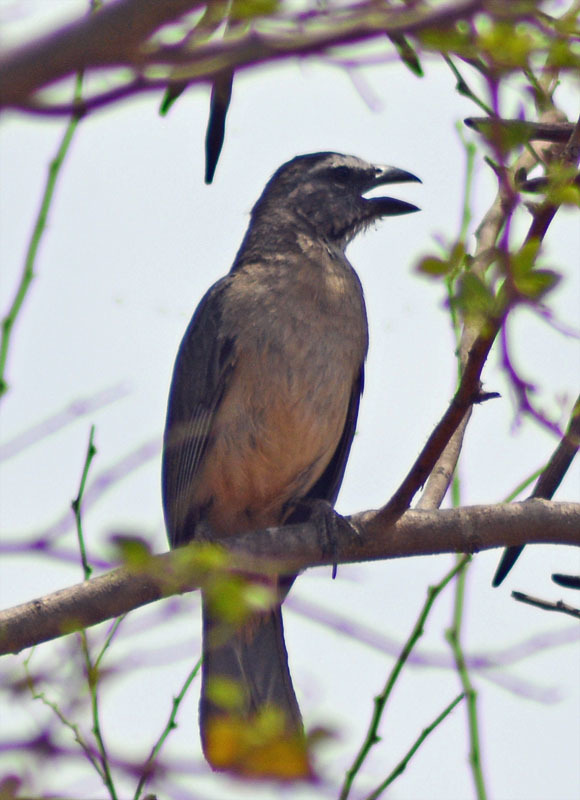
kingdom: Animalia
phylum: Chordata
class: Aves
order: Passeriformes
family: Thraupidae
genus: Saltator
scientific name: Saltator grandis
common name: Cinnamon-bellied saltator
